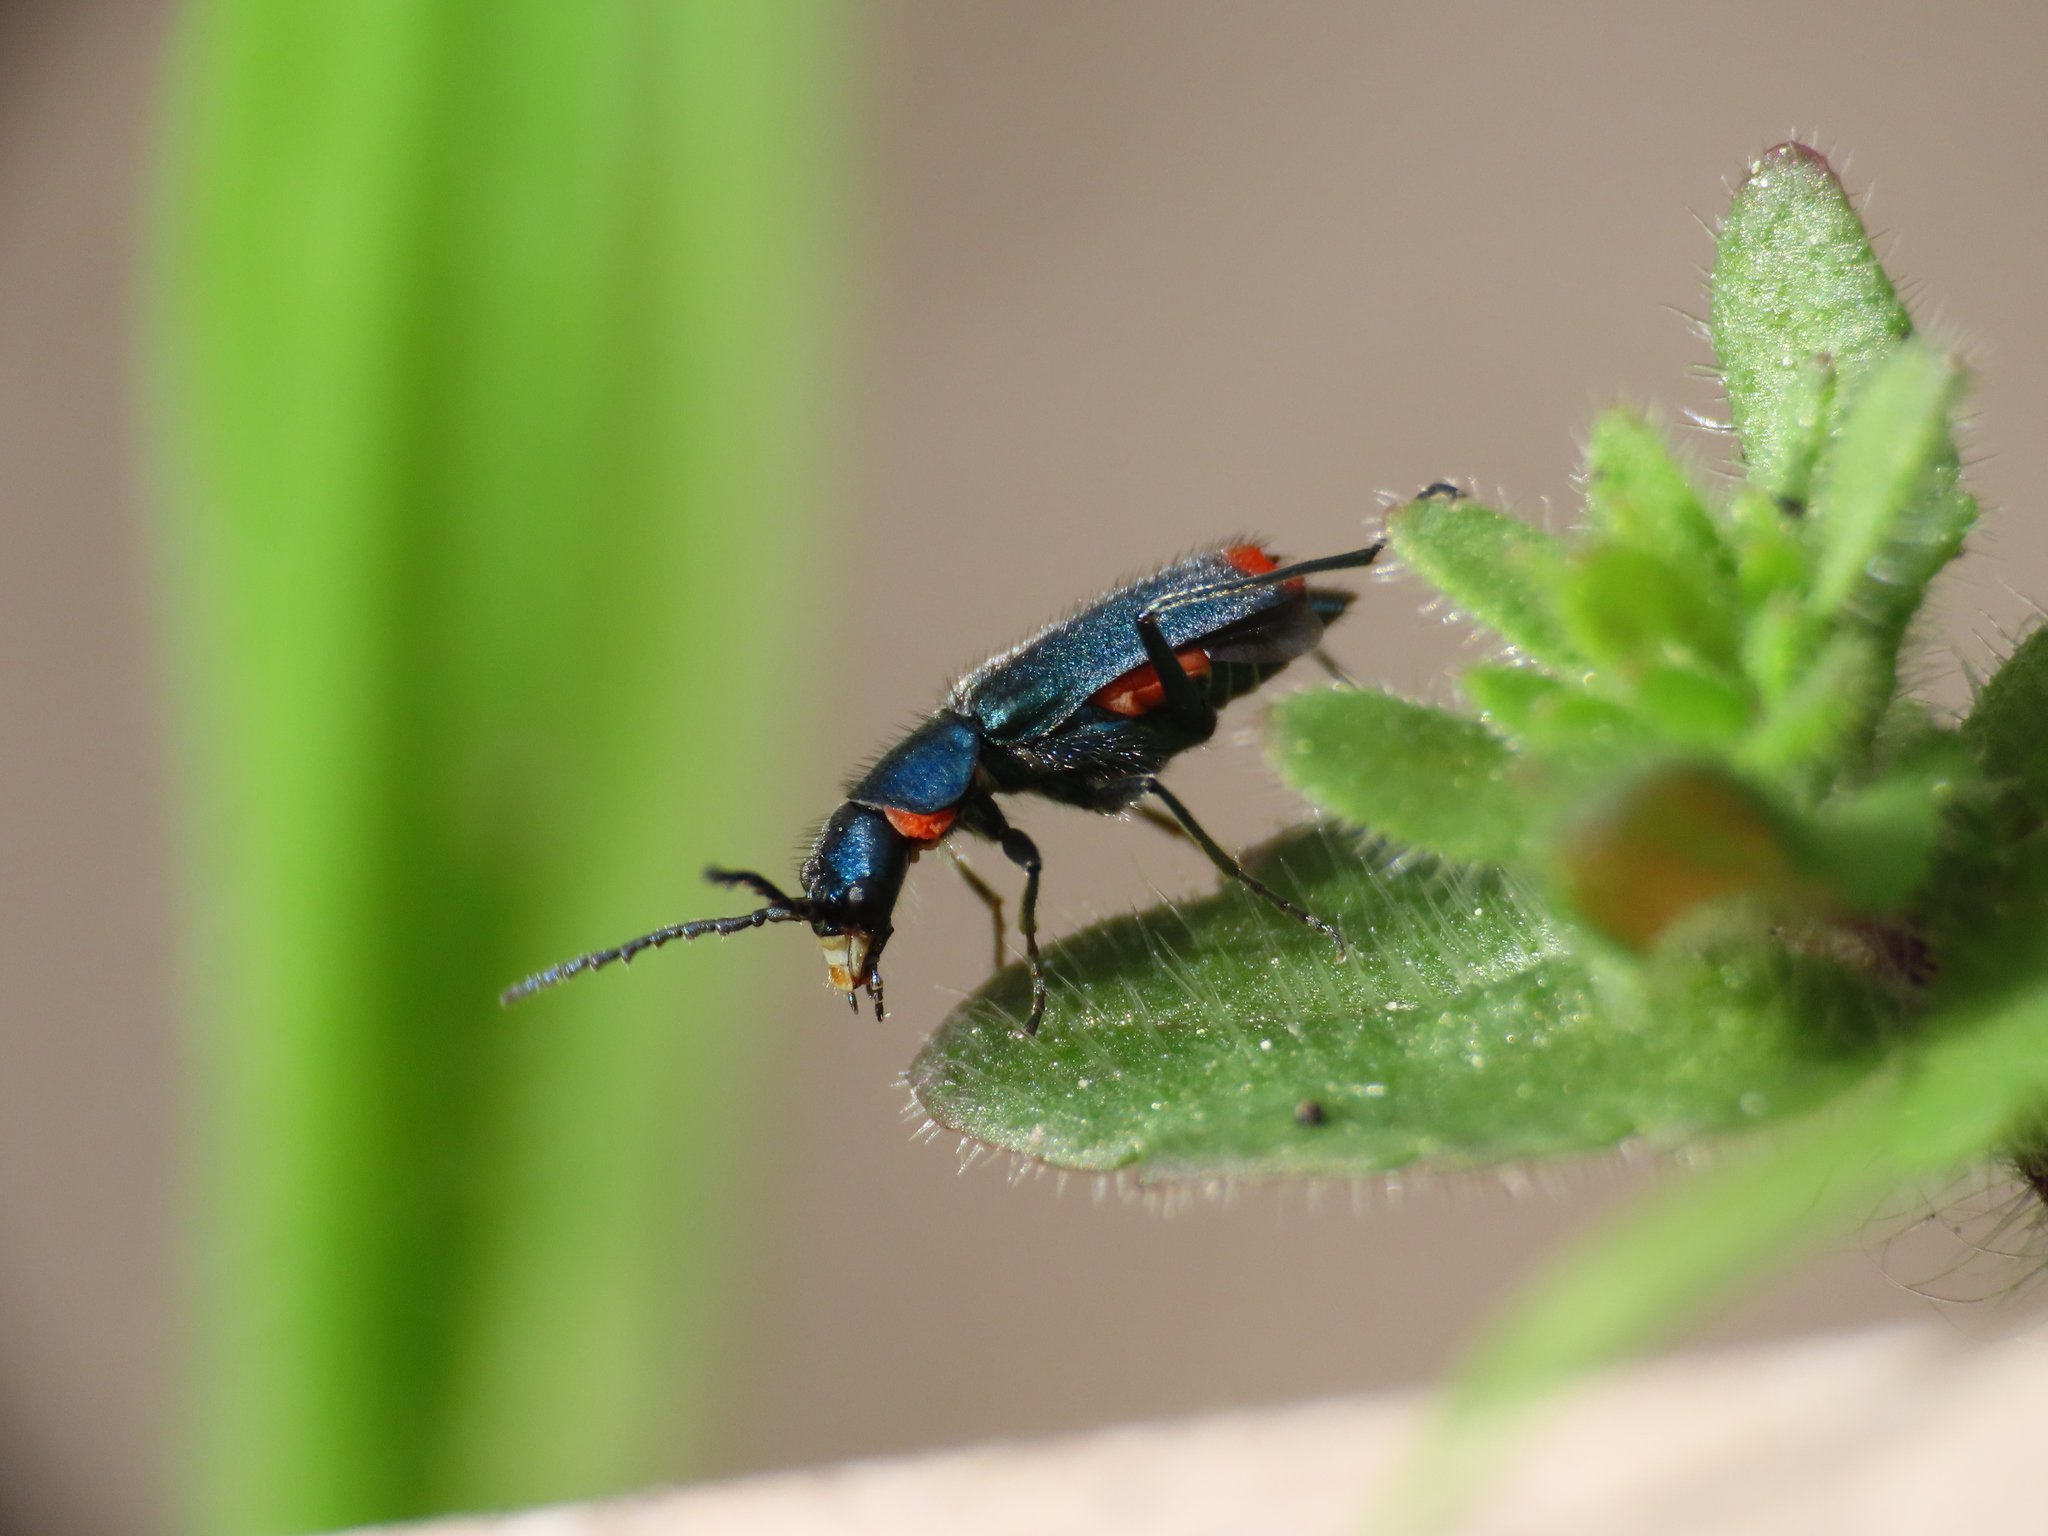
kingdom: Animalia
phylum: Arthropoda
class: Insecta
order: Coleoptera
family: Malachiidae
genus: Clanoptilus
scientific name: Clanoptilus spinipennis
